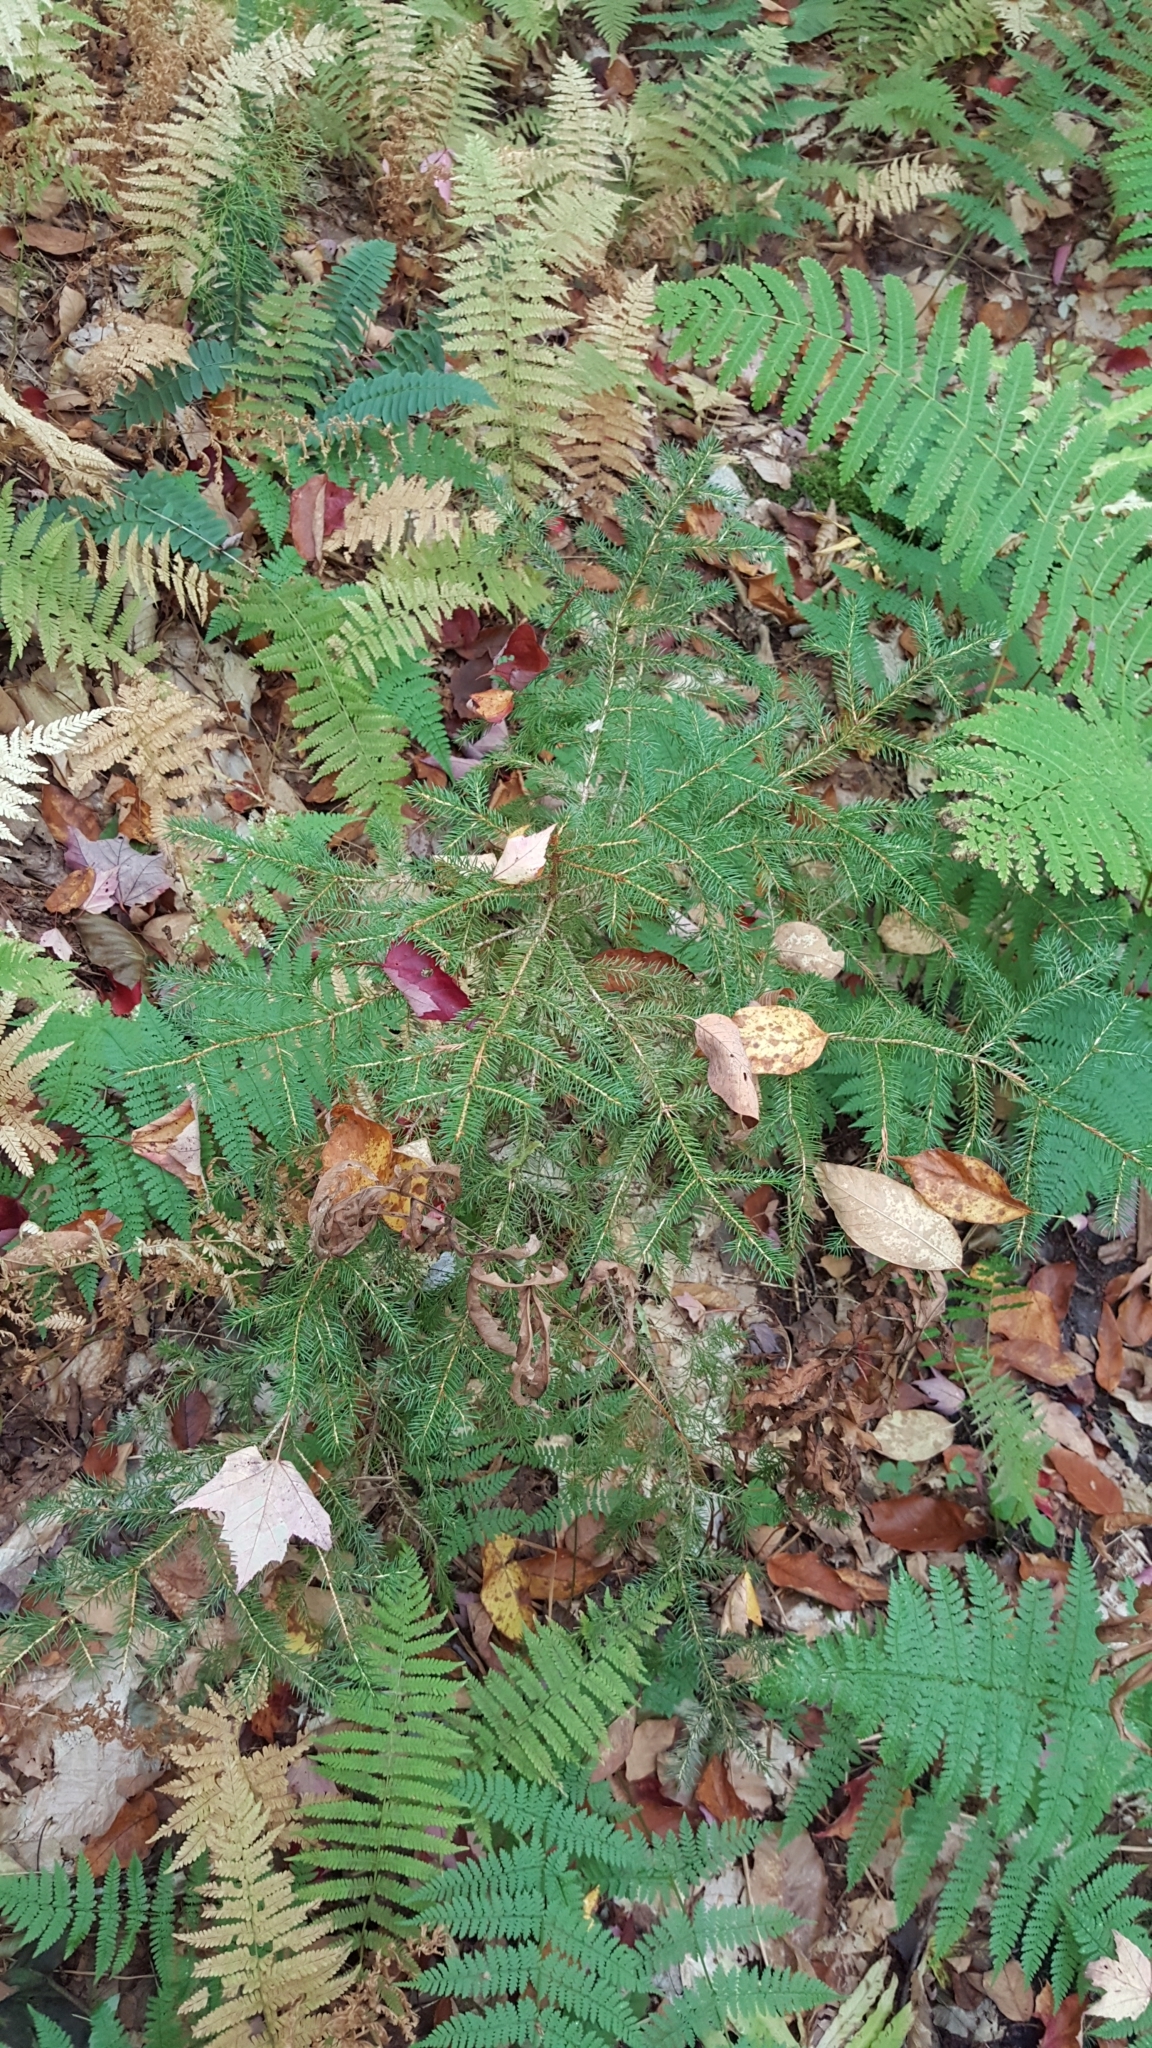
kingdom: Plantae
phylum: Tracheophyta
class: Pinopsida
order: Pinales
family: Pinaceae
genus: Picea
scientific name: Picea rubens
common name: Red spruce
